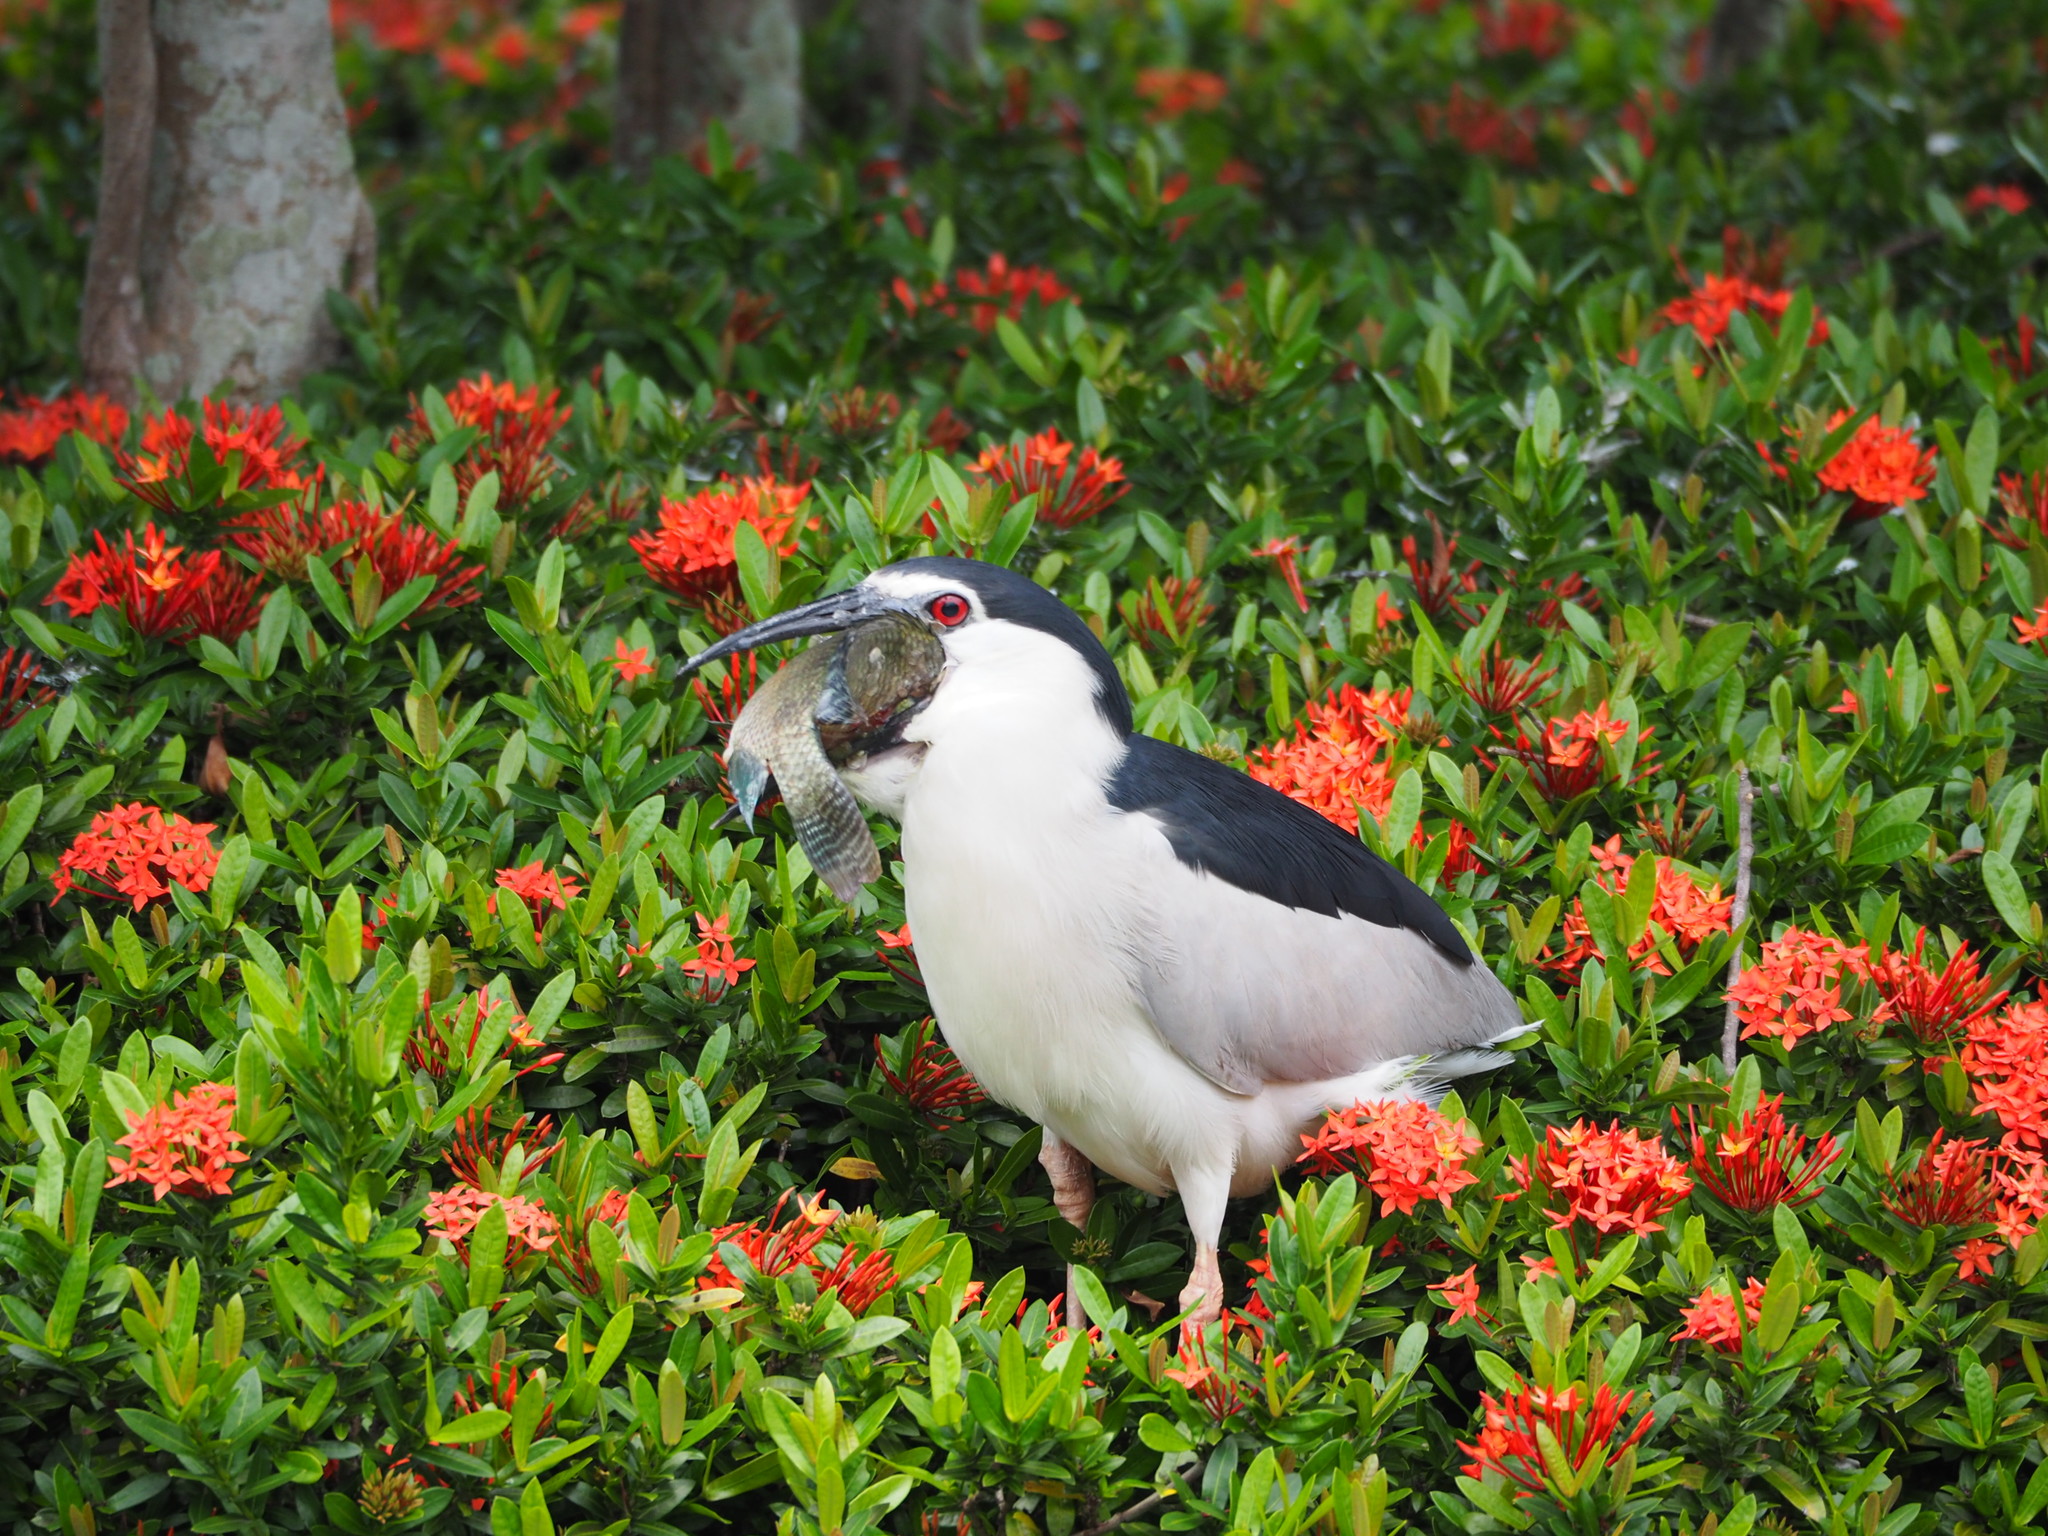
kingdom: Animalia
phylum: Chordata
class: Aves
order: Pelecaniformes
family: Ardeidae
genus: Nycticorax
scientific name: Nycticorax nycticorax
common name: Black-crowned night heron
